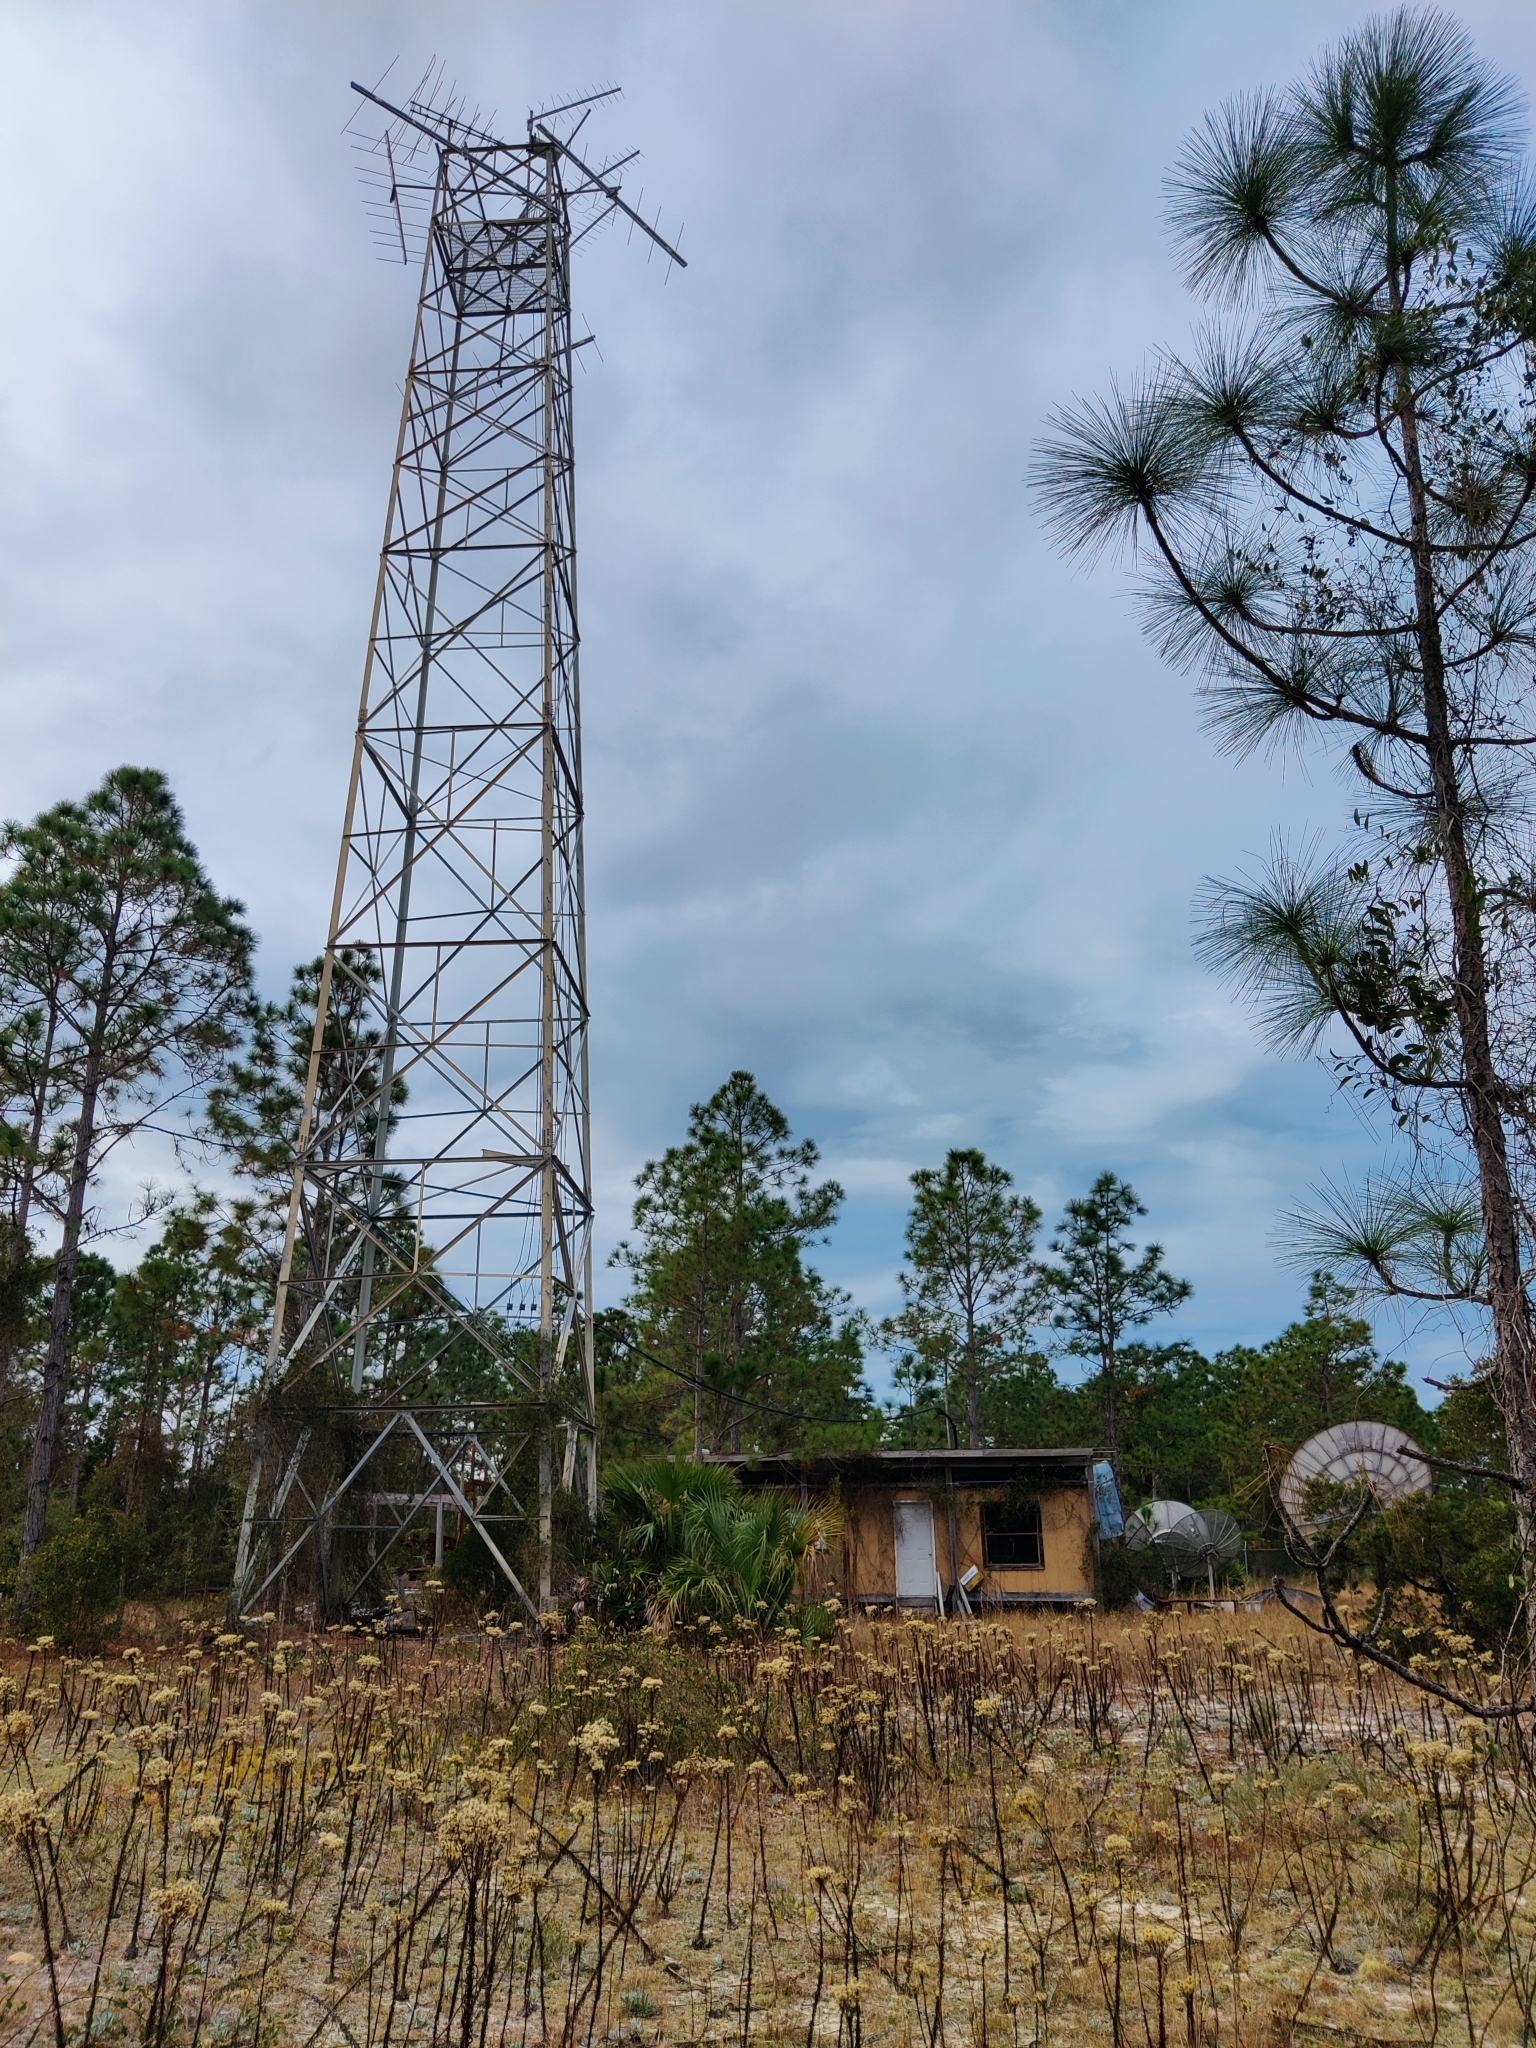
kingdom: Plantae
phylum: Tracheophyta
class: Magnoliopsida
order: Asterales
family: Asteraceae
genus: Chrysopsis
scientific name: Chrysopsis linearifolia
